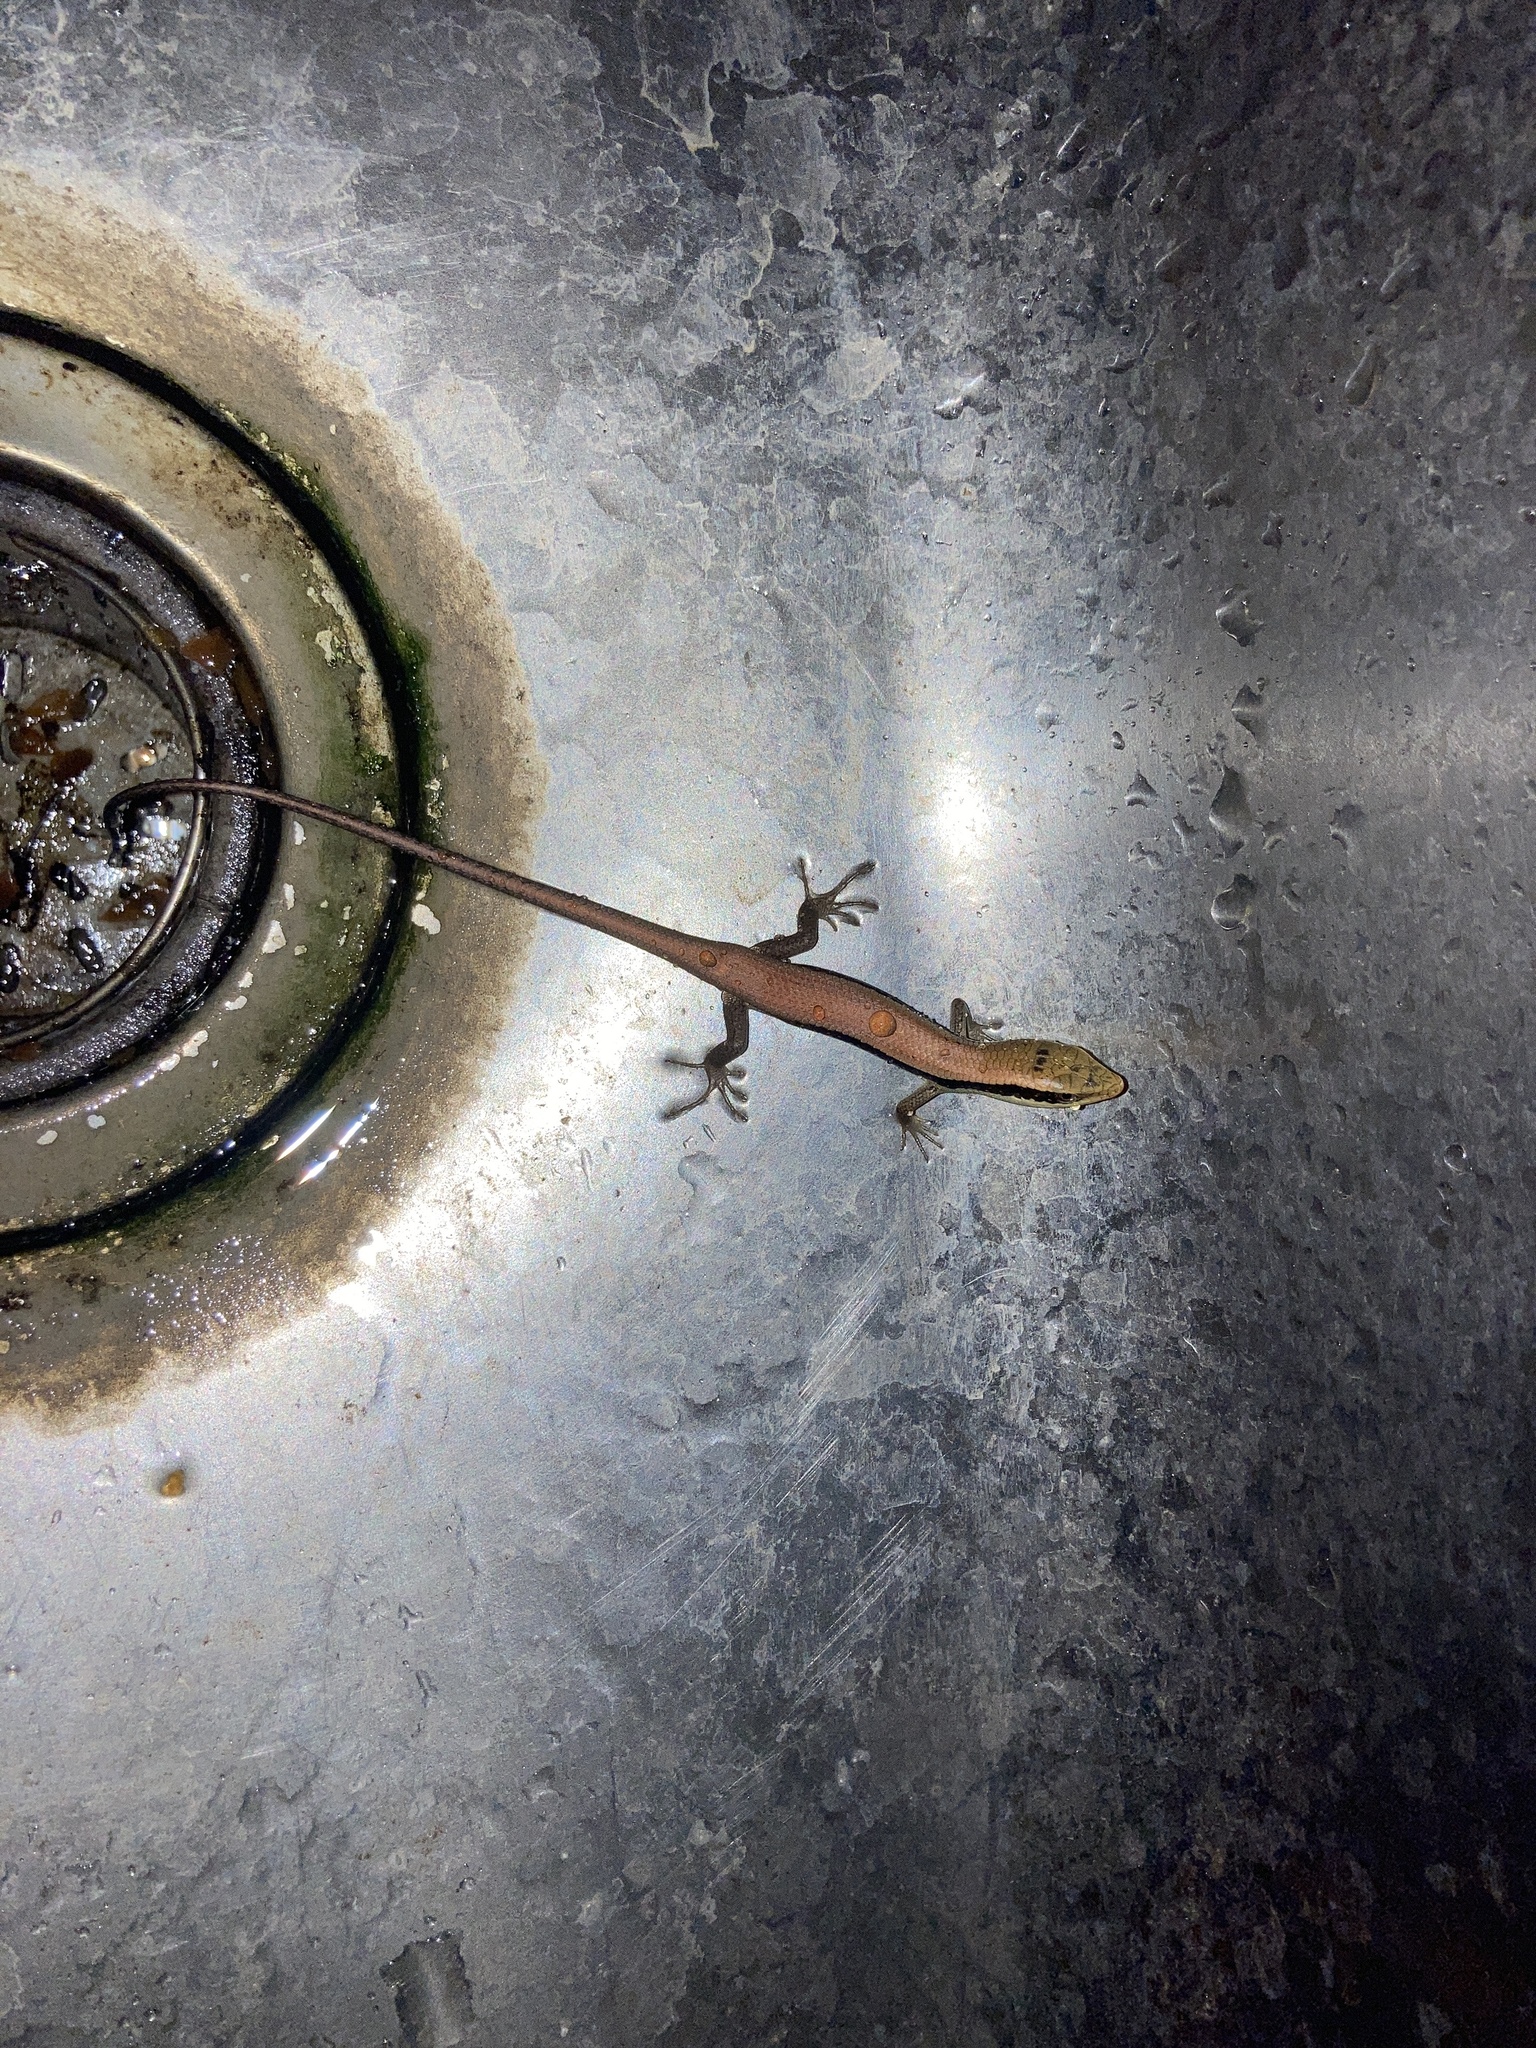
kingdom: Animalia
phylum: Chordata
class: Squamata
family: Scincidae
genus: Eutropis
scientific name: Eutropis longicaudata
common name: Long-tailed sun skink
